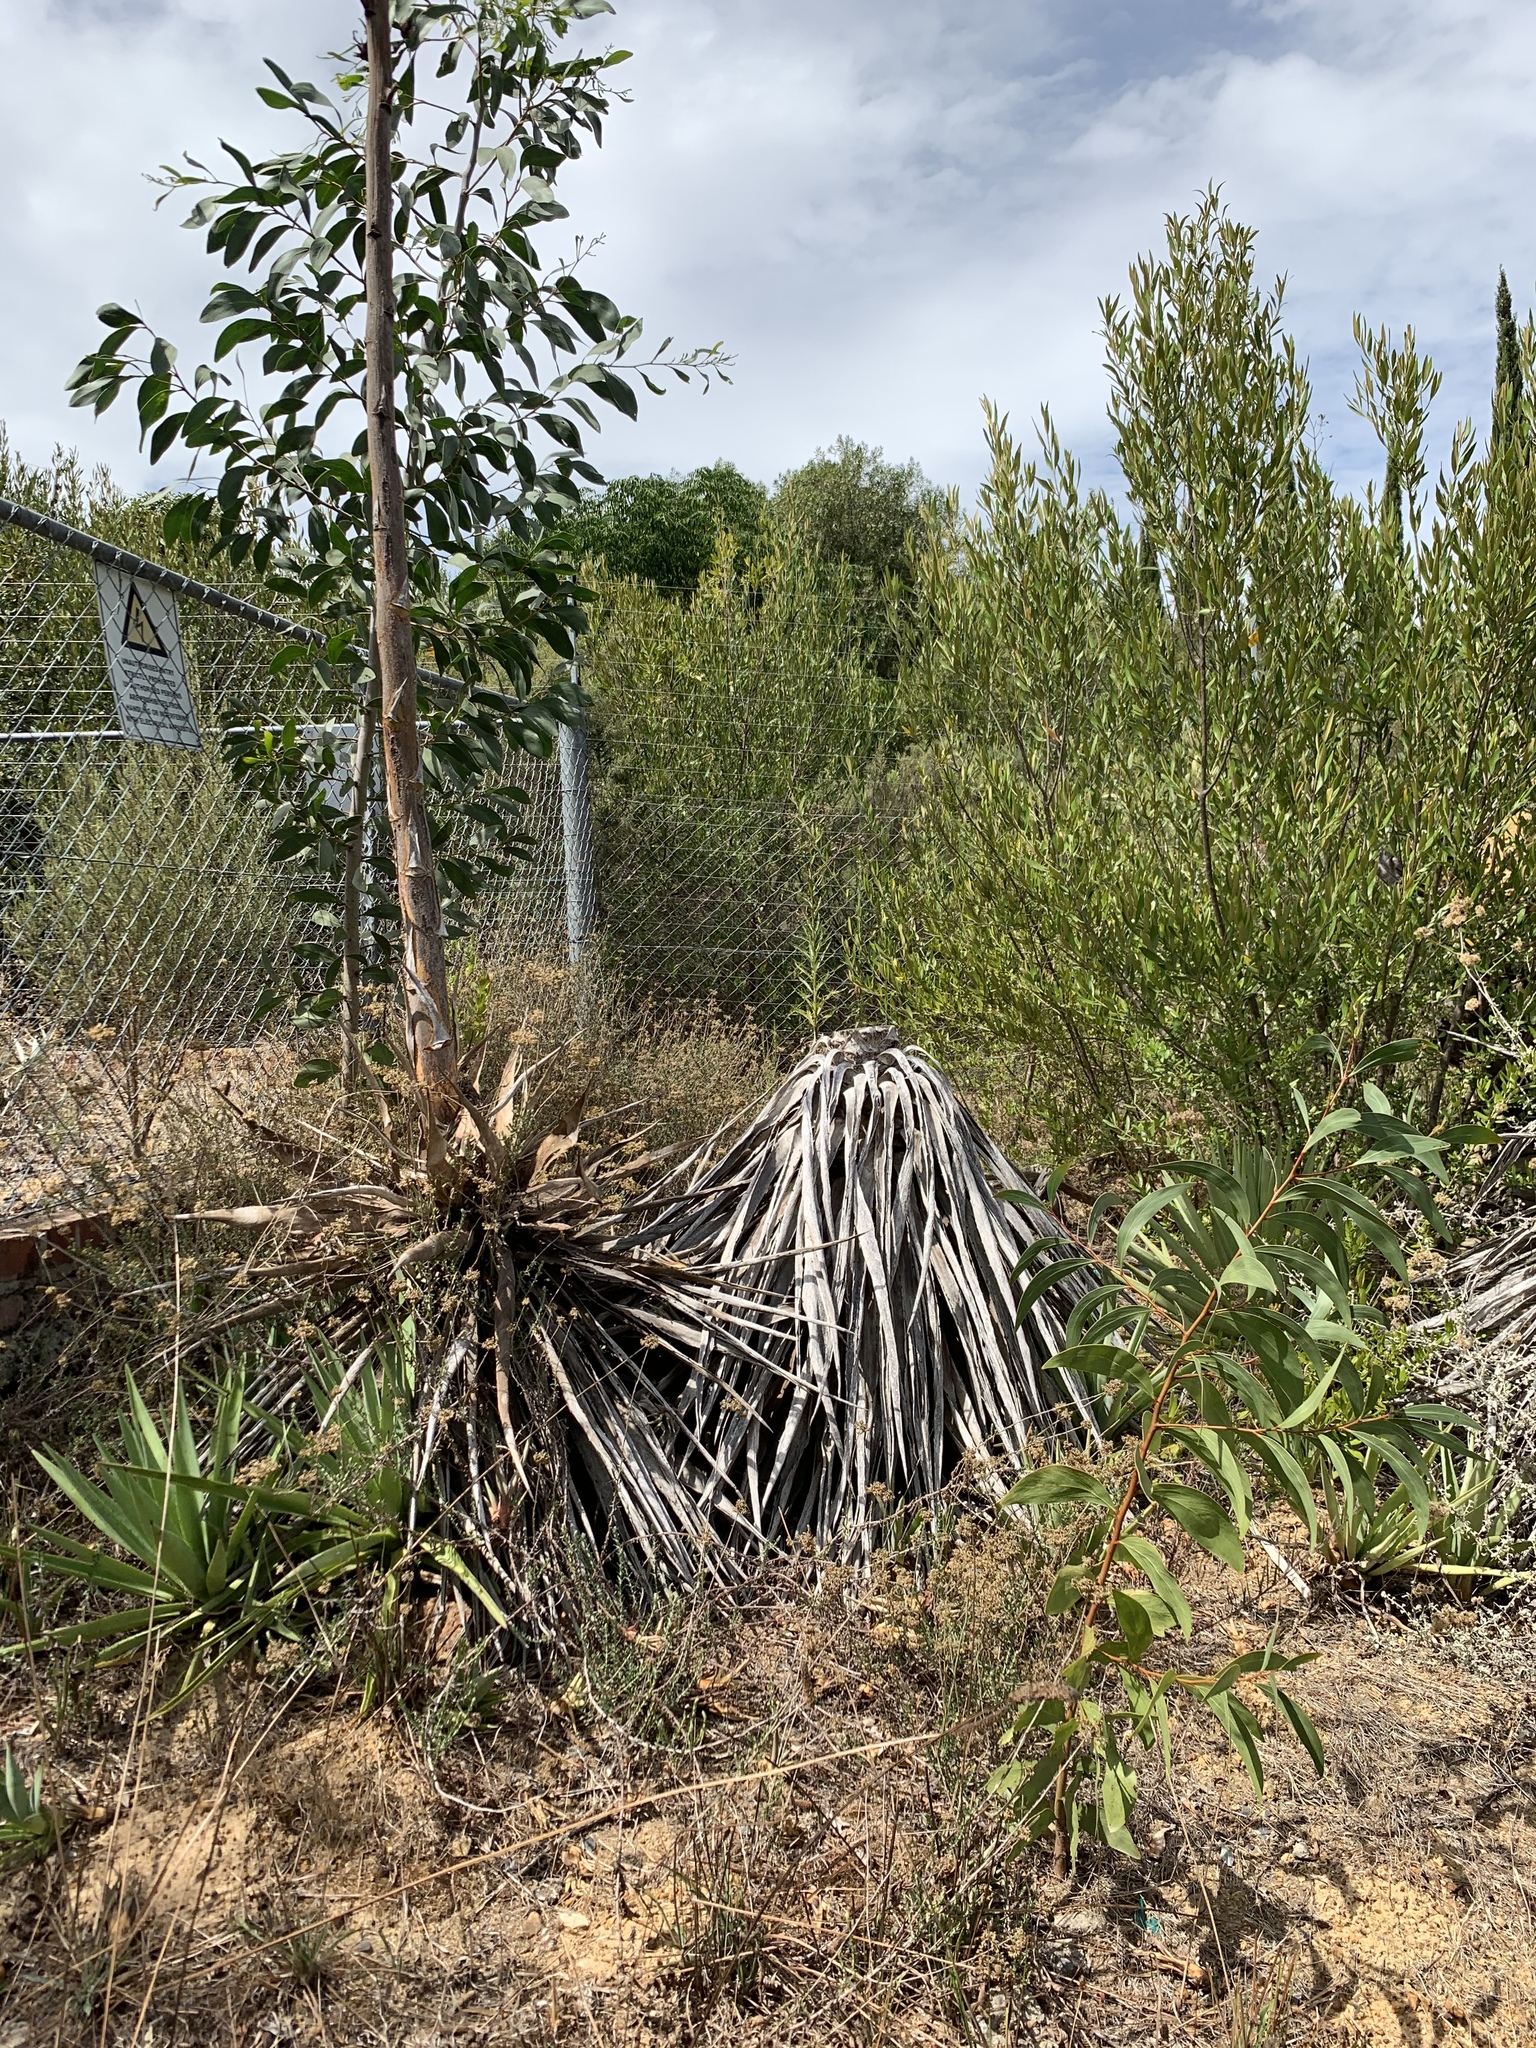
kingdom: Plantae
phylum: Tracheophyta
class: Magnoliopsida
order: Fabales
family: Fabaceae
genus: Acacia
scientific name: Acacia pycnantha
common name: Golden wattle
